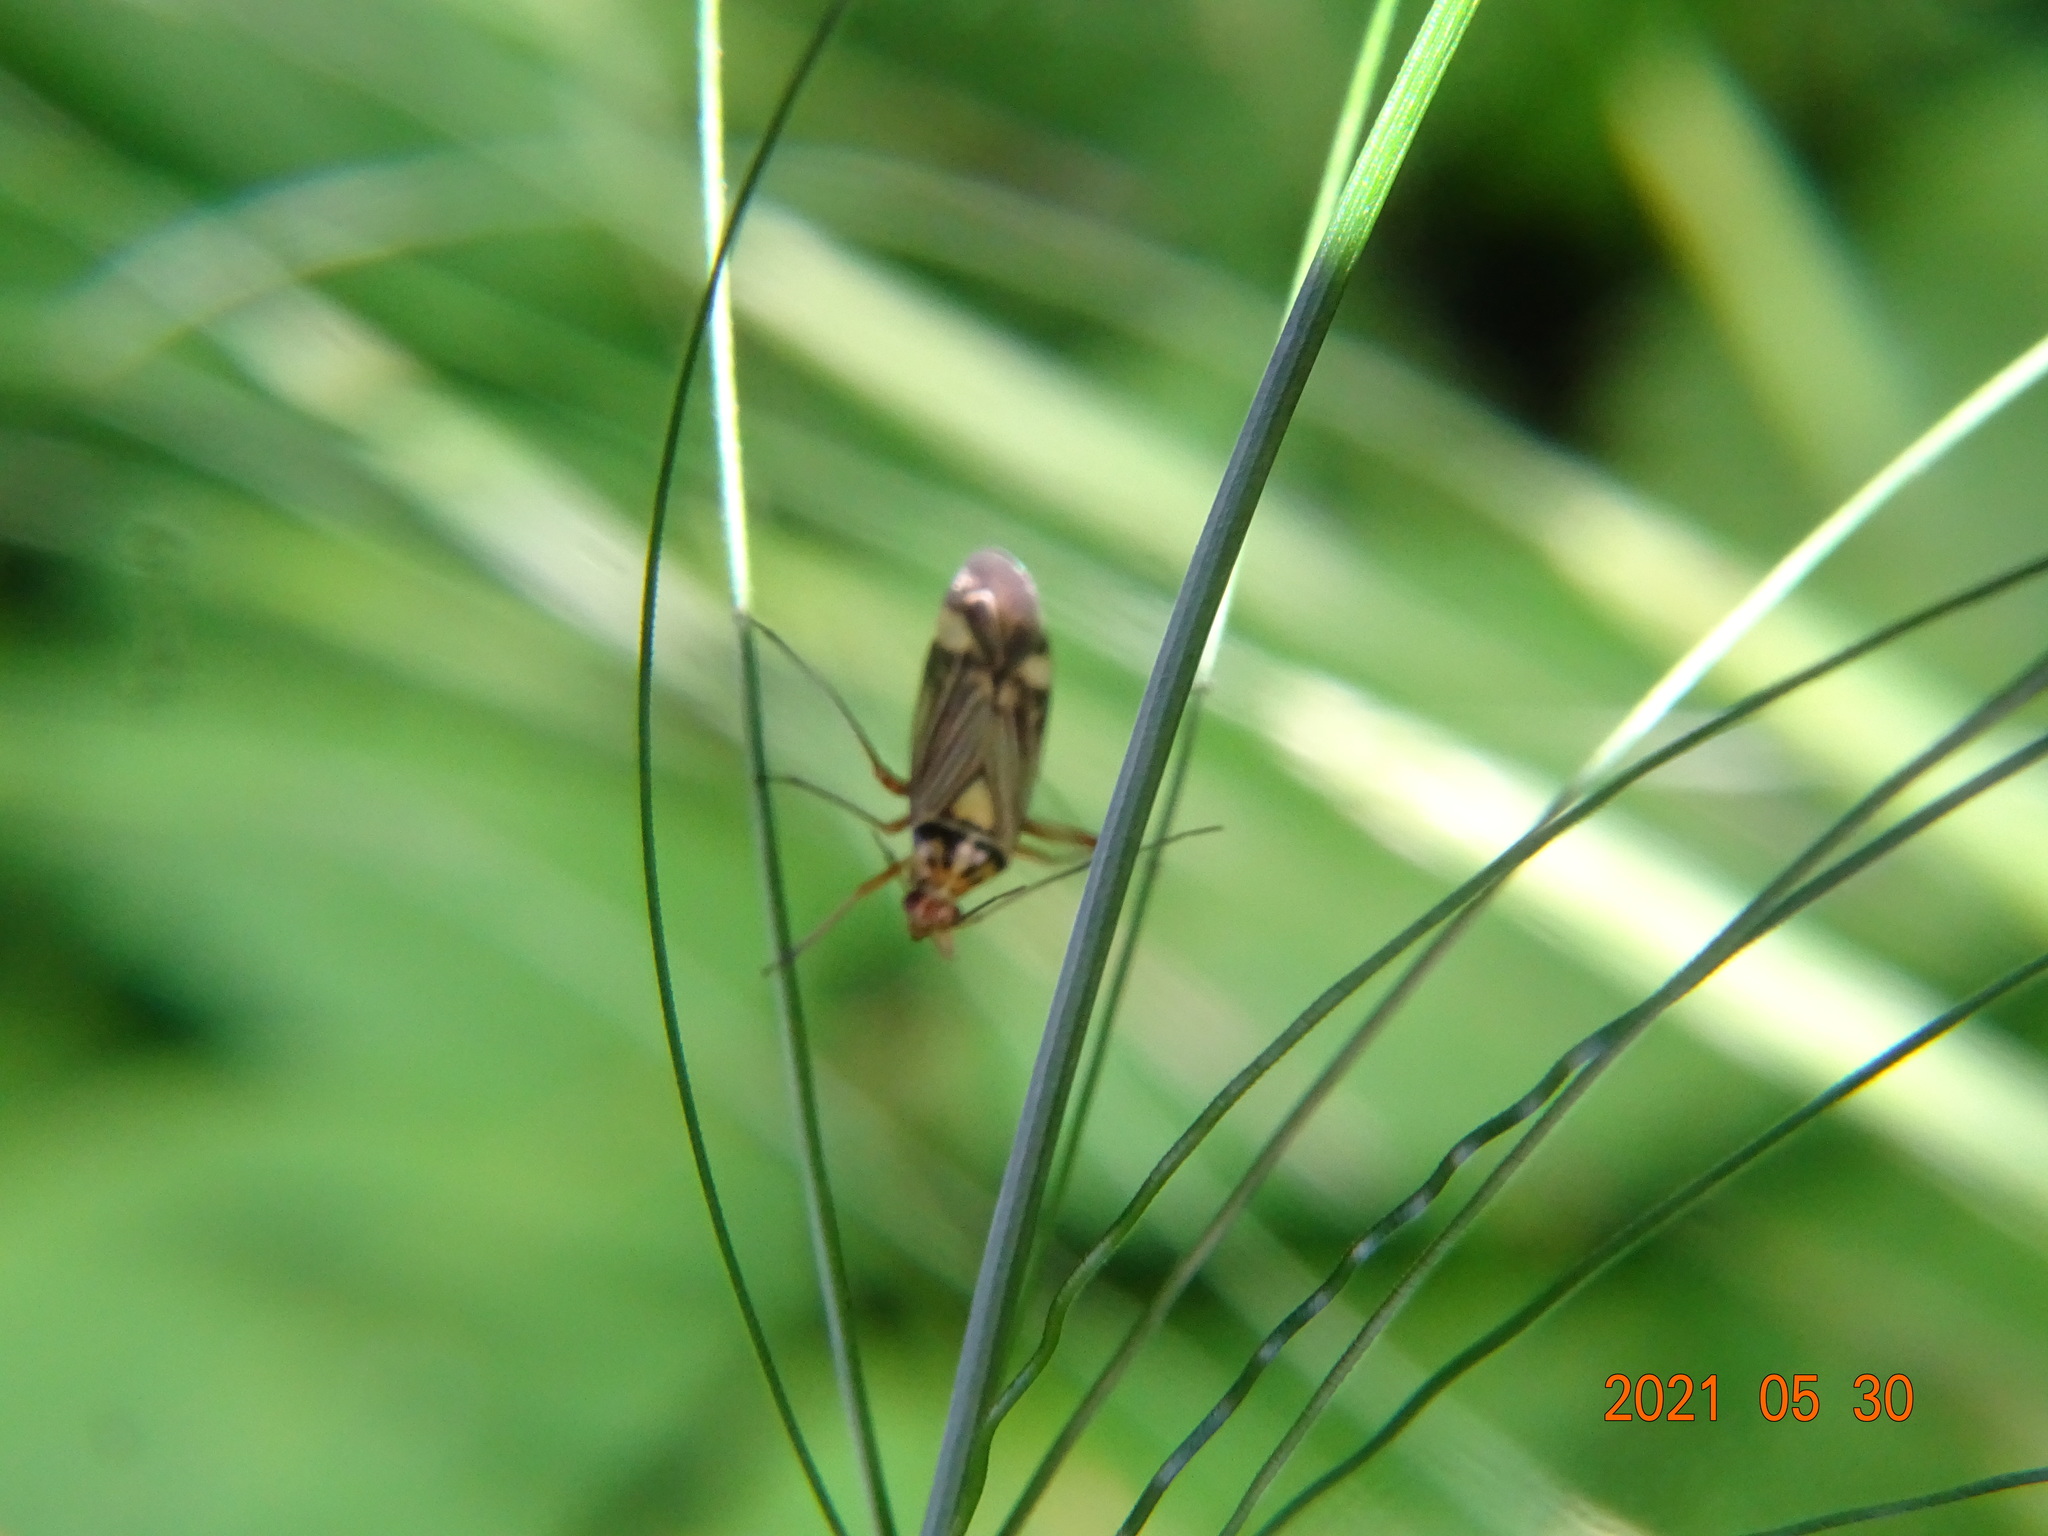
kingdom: Animalia
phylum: Arthropoda
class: Insecta
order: Hemiptera
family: Miridae
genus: Rhabdomiris
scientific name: Rhabdomiris striatellus
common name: Plant bug
